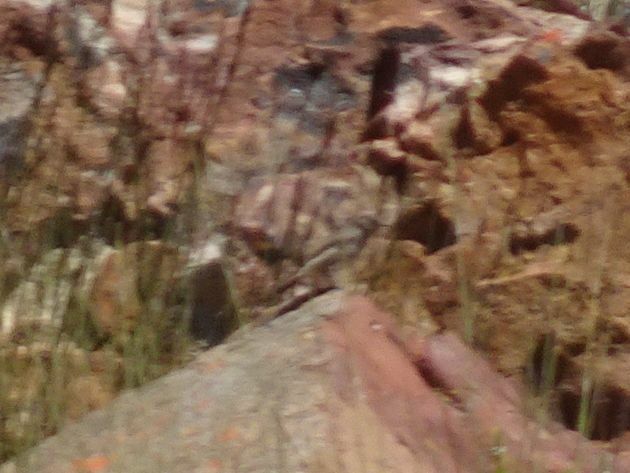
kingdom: Animalia
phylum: Chordata
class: Aves
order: Passeriformes
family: Muscicapidae
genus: Oenanthe
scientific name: Oenanthe familiaris
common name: Familiar chat
